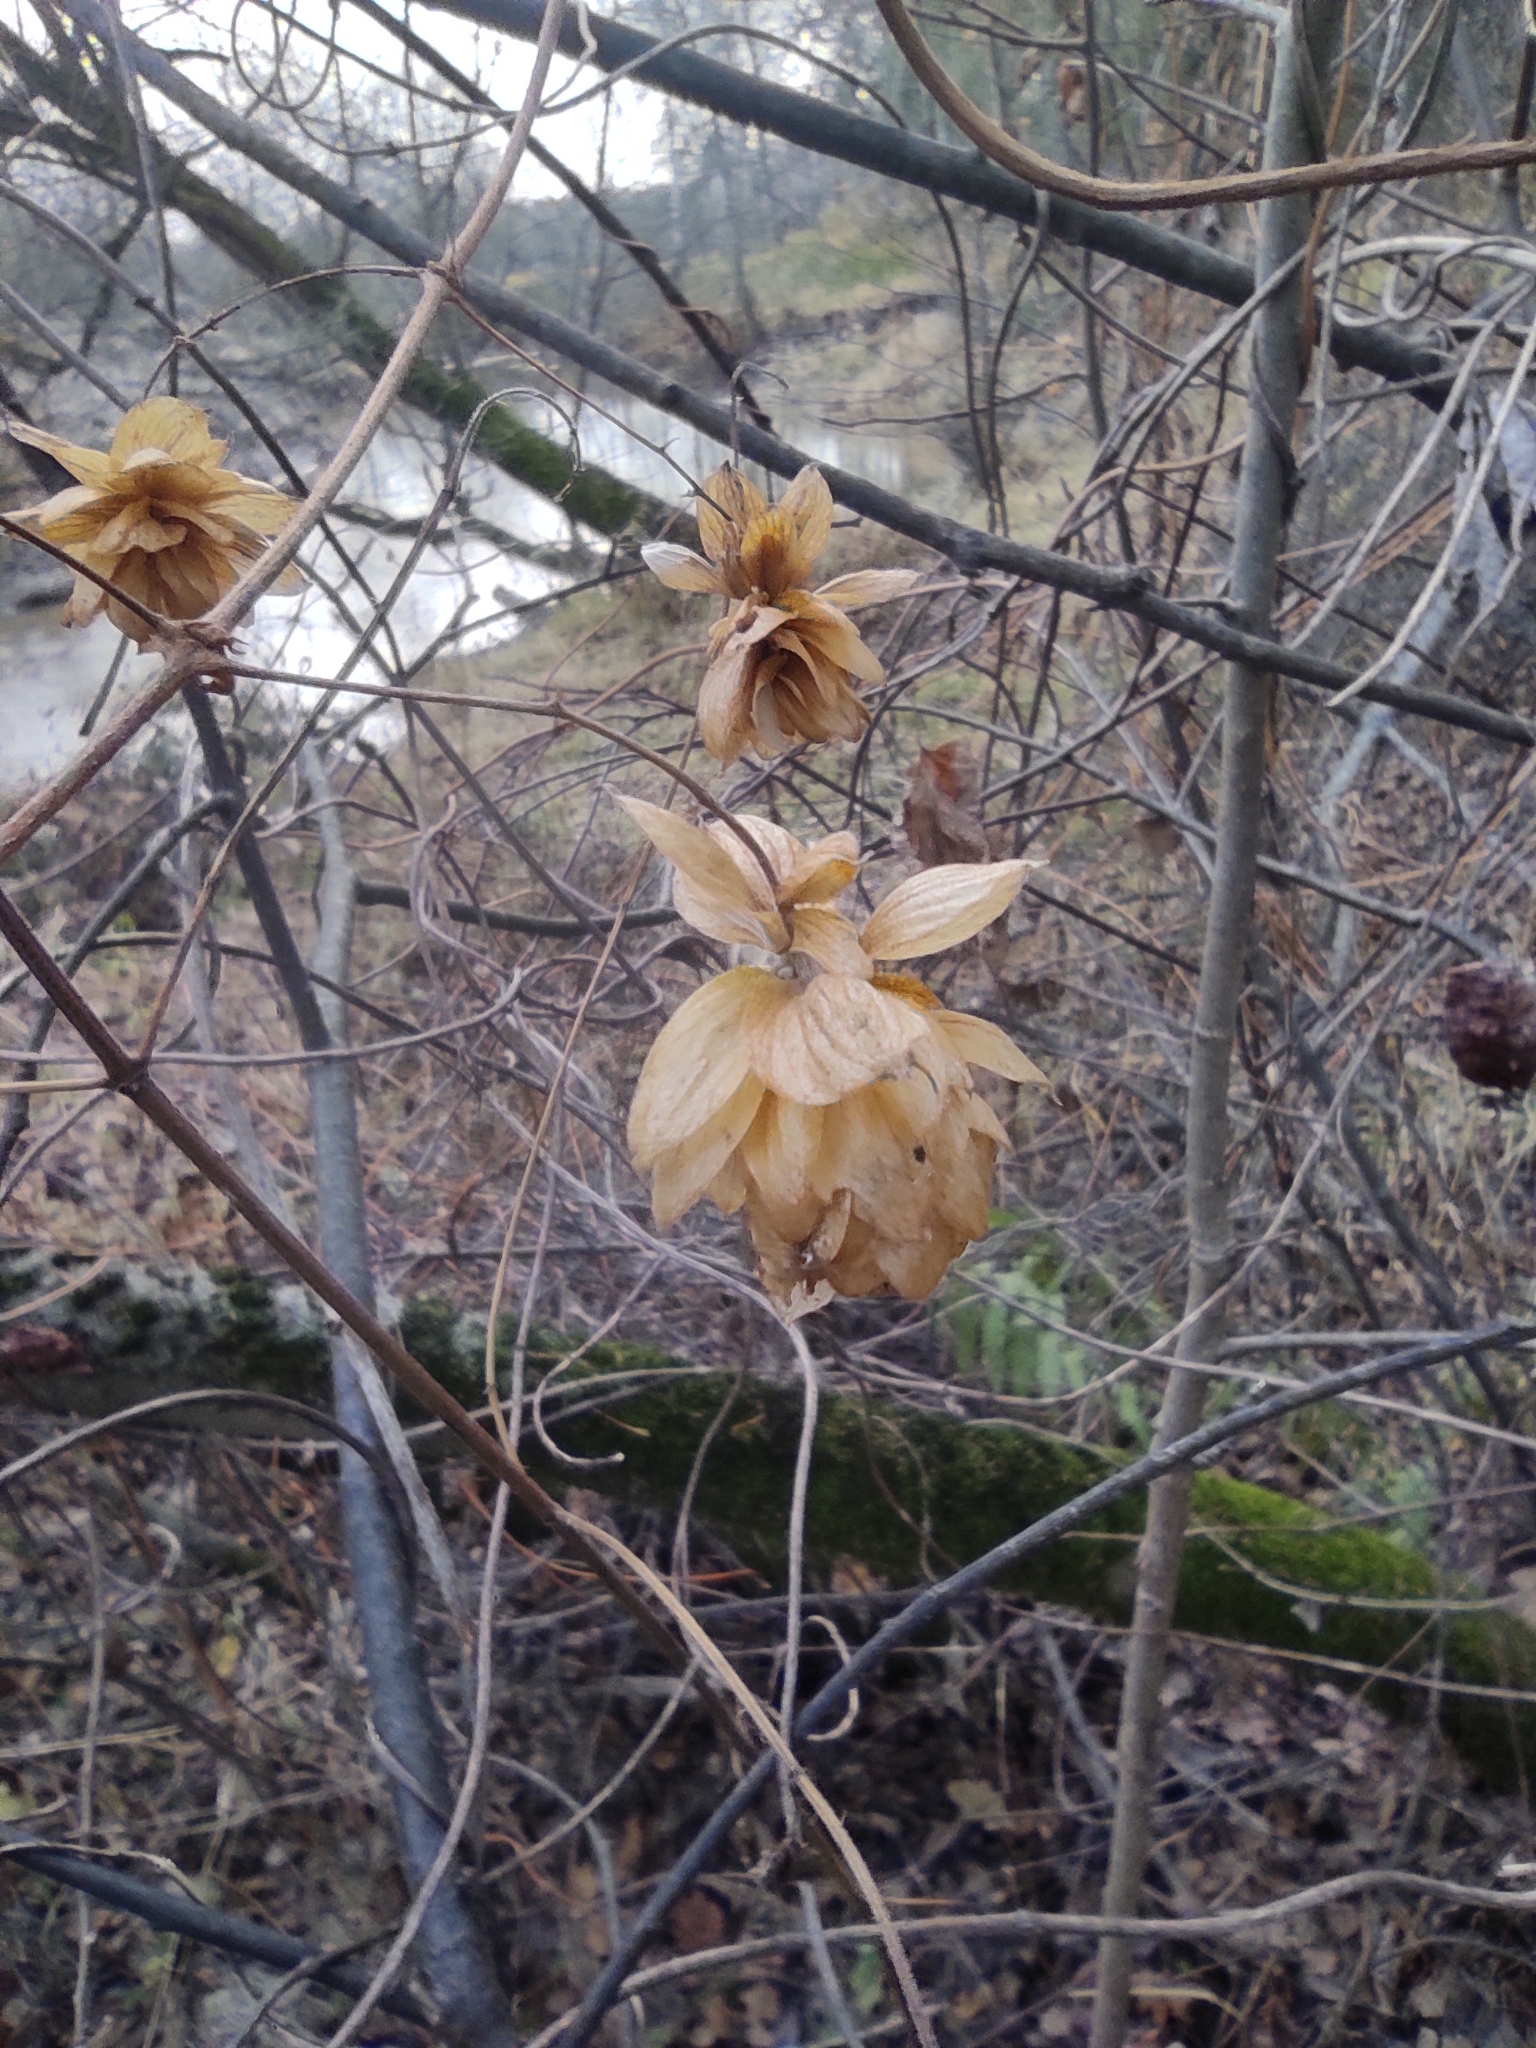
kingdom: Plantae
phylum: Tracheophyta
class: Magnoliopsida
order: Rosales
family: Cannabaceae
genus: Humulus
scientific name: Humulus lupulus
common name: Hop
